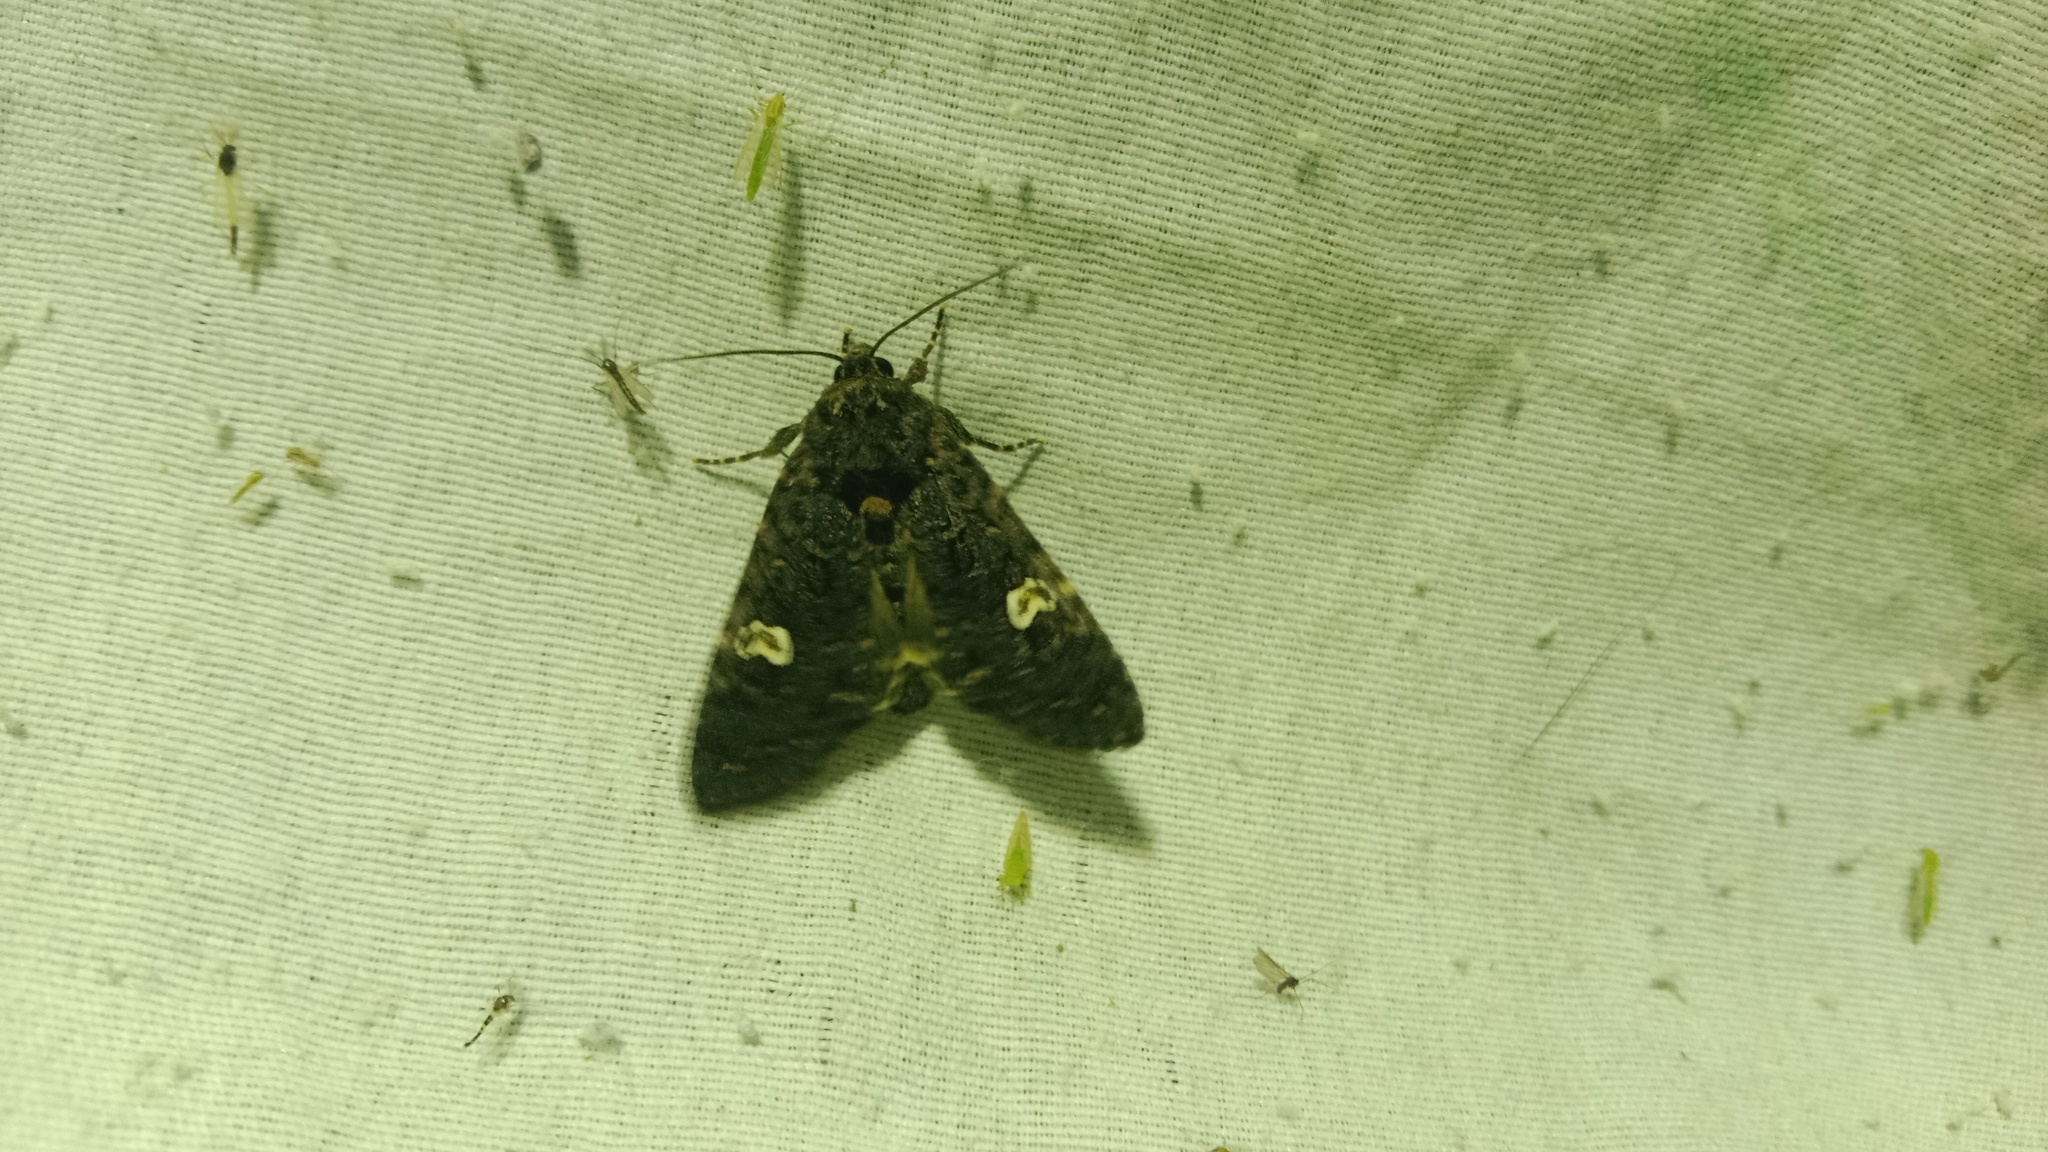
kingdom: Animalia
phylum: Arthropoda
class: Insecta
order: Lepidoptera
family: Noctuidae
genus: Melanchra
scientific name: Melanchra persicariae
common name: Dot moth
